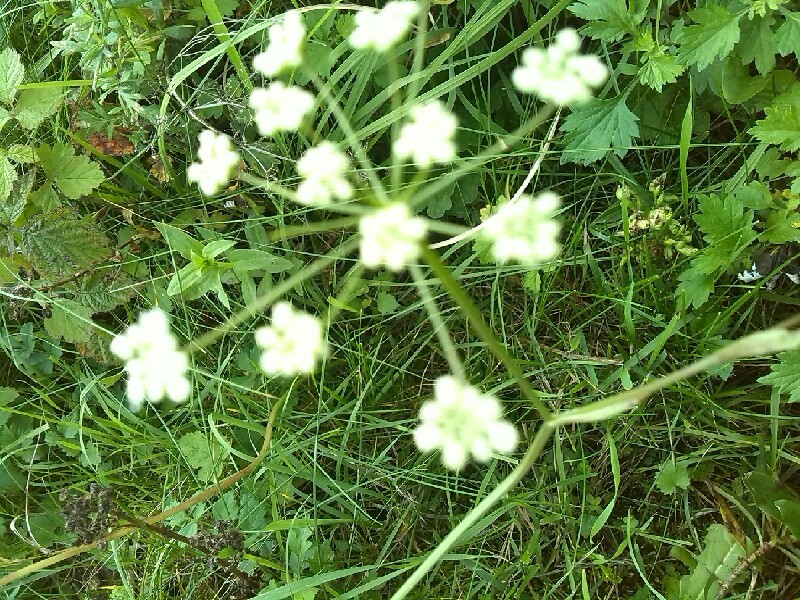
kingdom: Plantae
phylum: Tracheophyta
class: Magnoliopsida
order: Apiales
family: Apiaceae
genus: Pimpinella
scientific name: Pimpinella saxifraga
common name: Burnet-saxifrage
